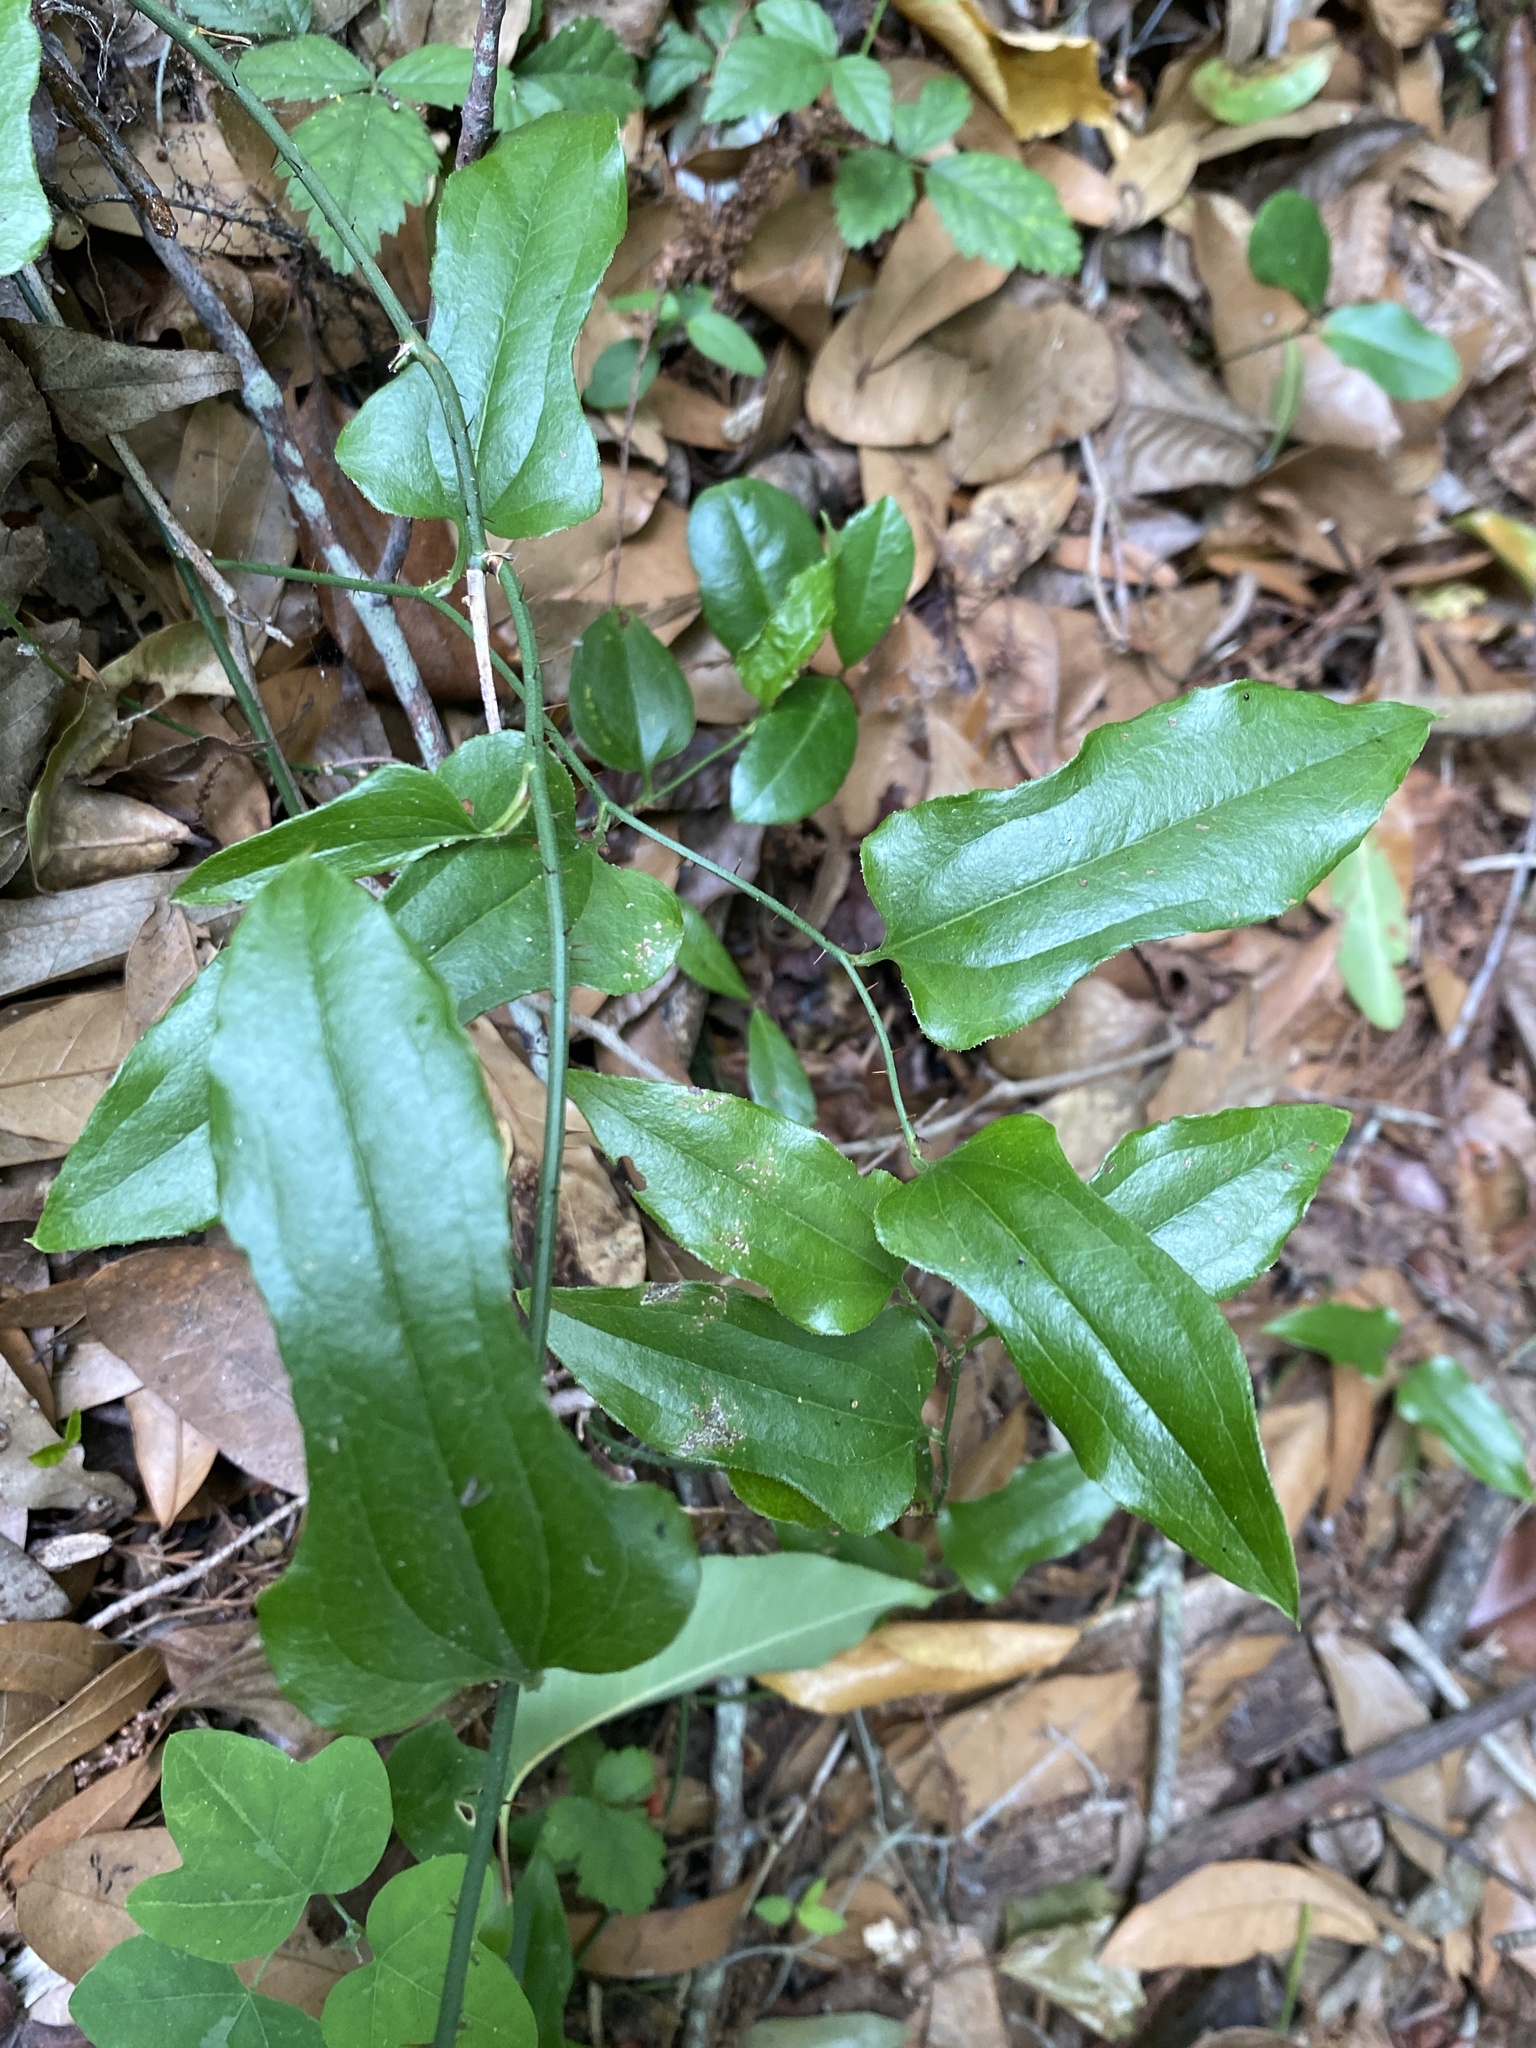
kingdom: Plantae
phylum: Tracheophyta
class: Liliopsida
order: Liliales
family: Smilacaceae
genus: Smilax
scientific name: Smilax tamnoides
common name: Hellfetter
